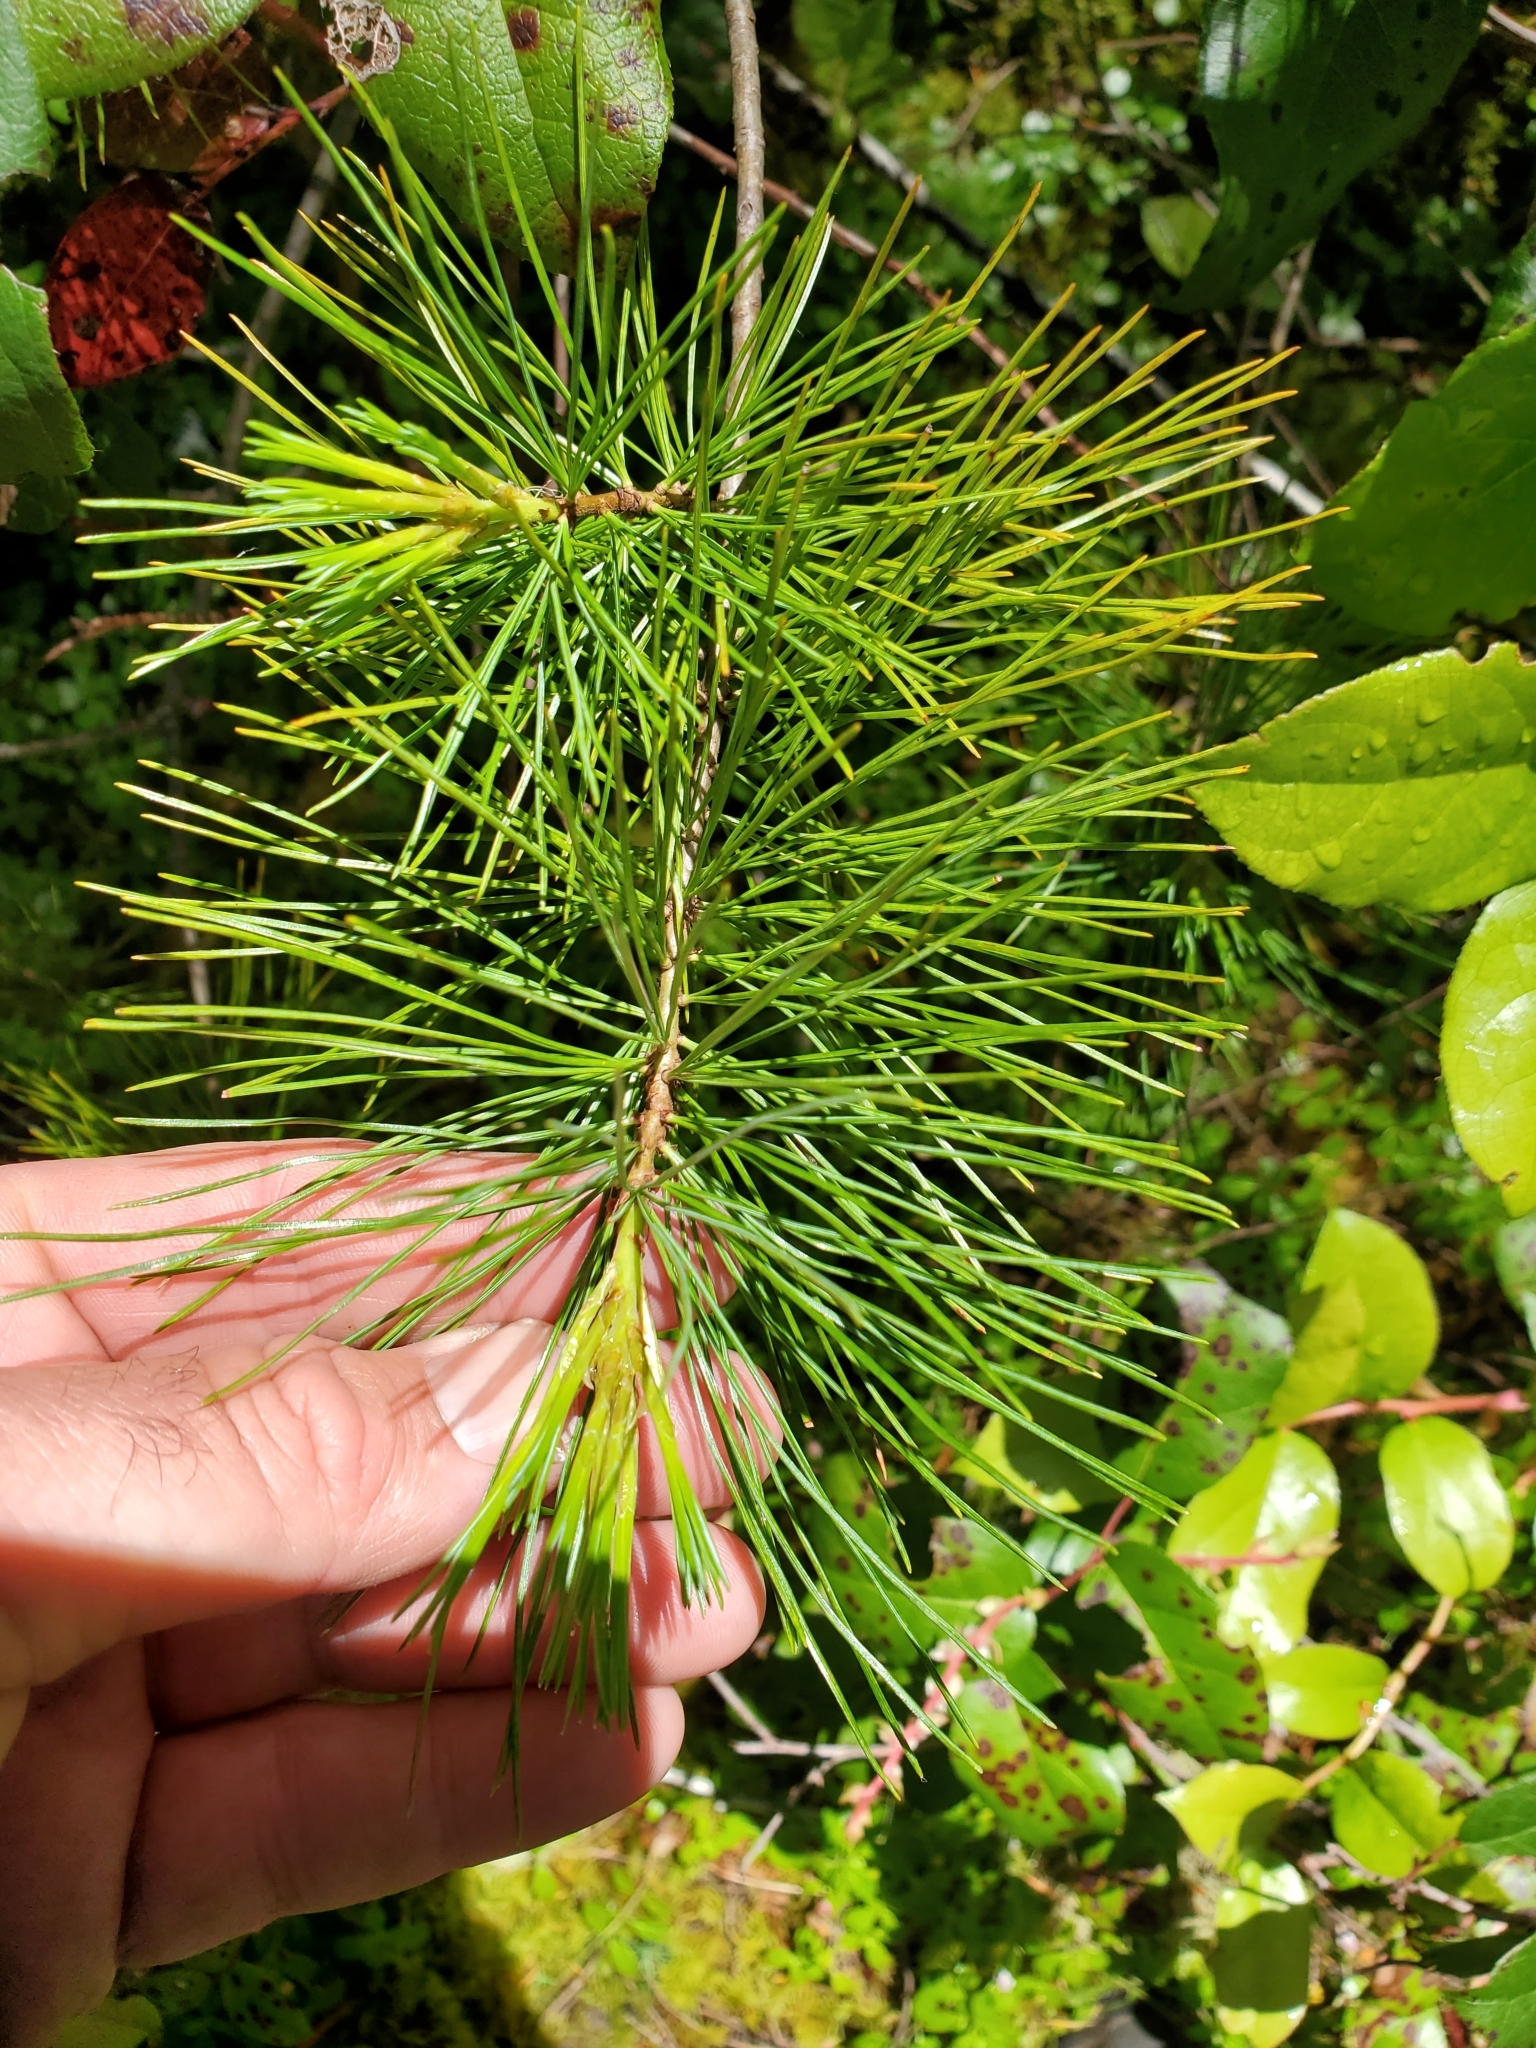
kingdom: Plantae
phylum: Tracheophyta
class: Pinopsida
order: Pinales
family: Pinaceae
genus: Pinus
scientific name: Pinus monticola
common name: Western white pine
